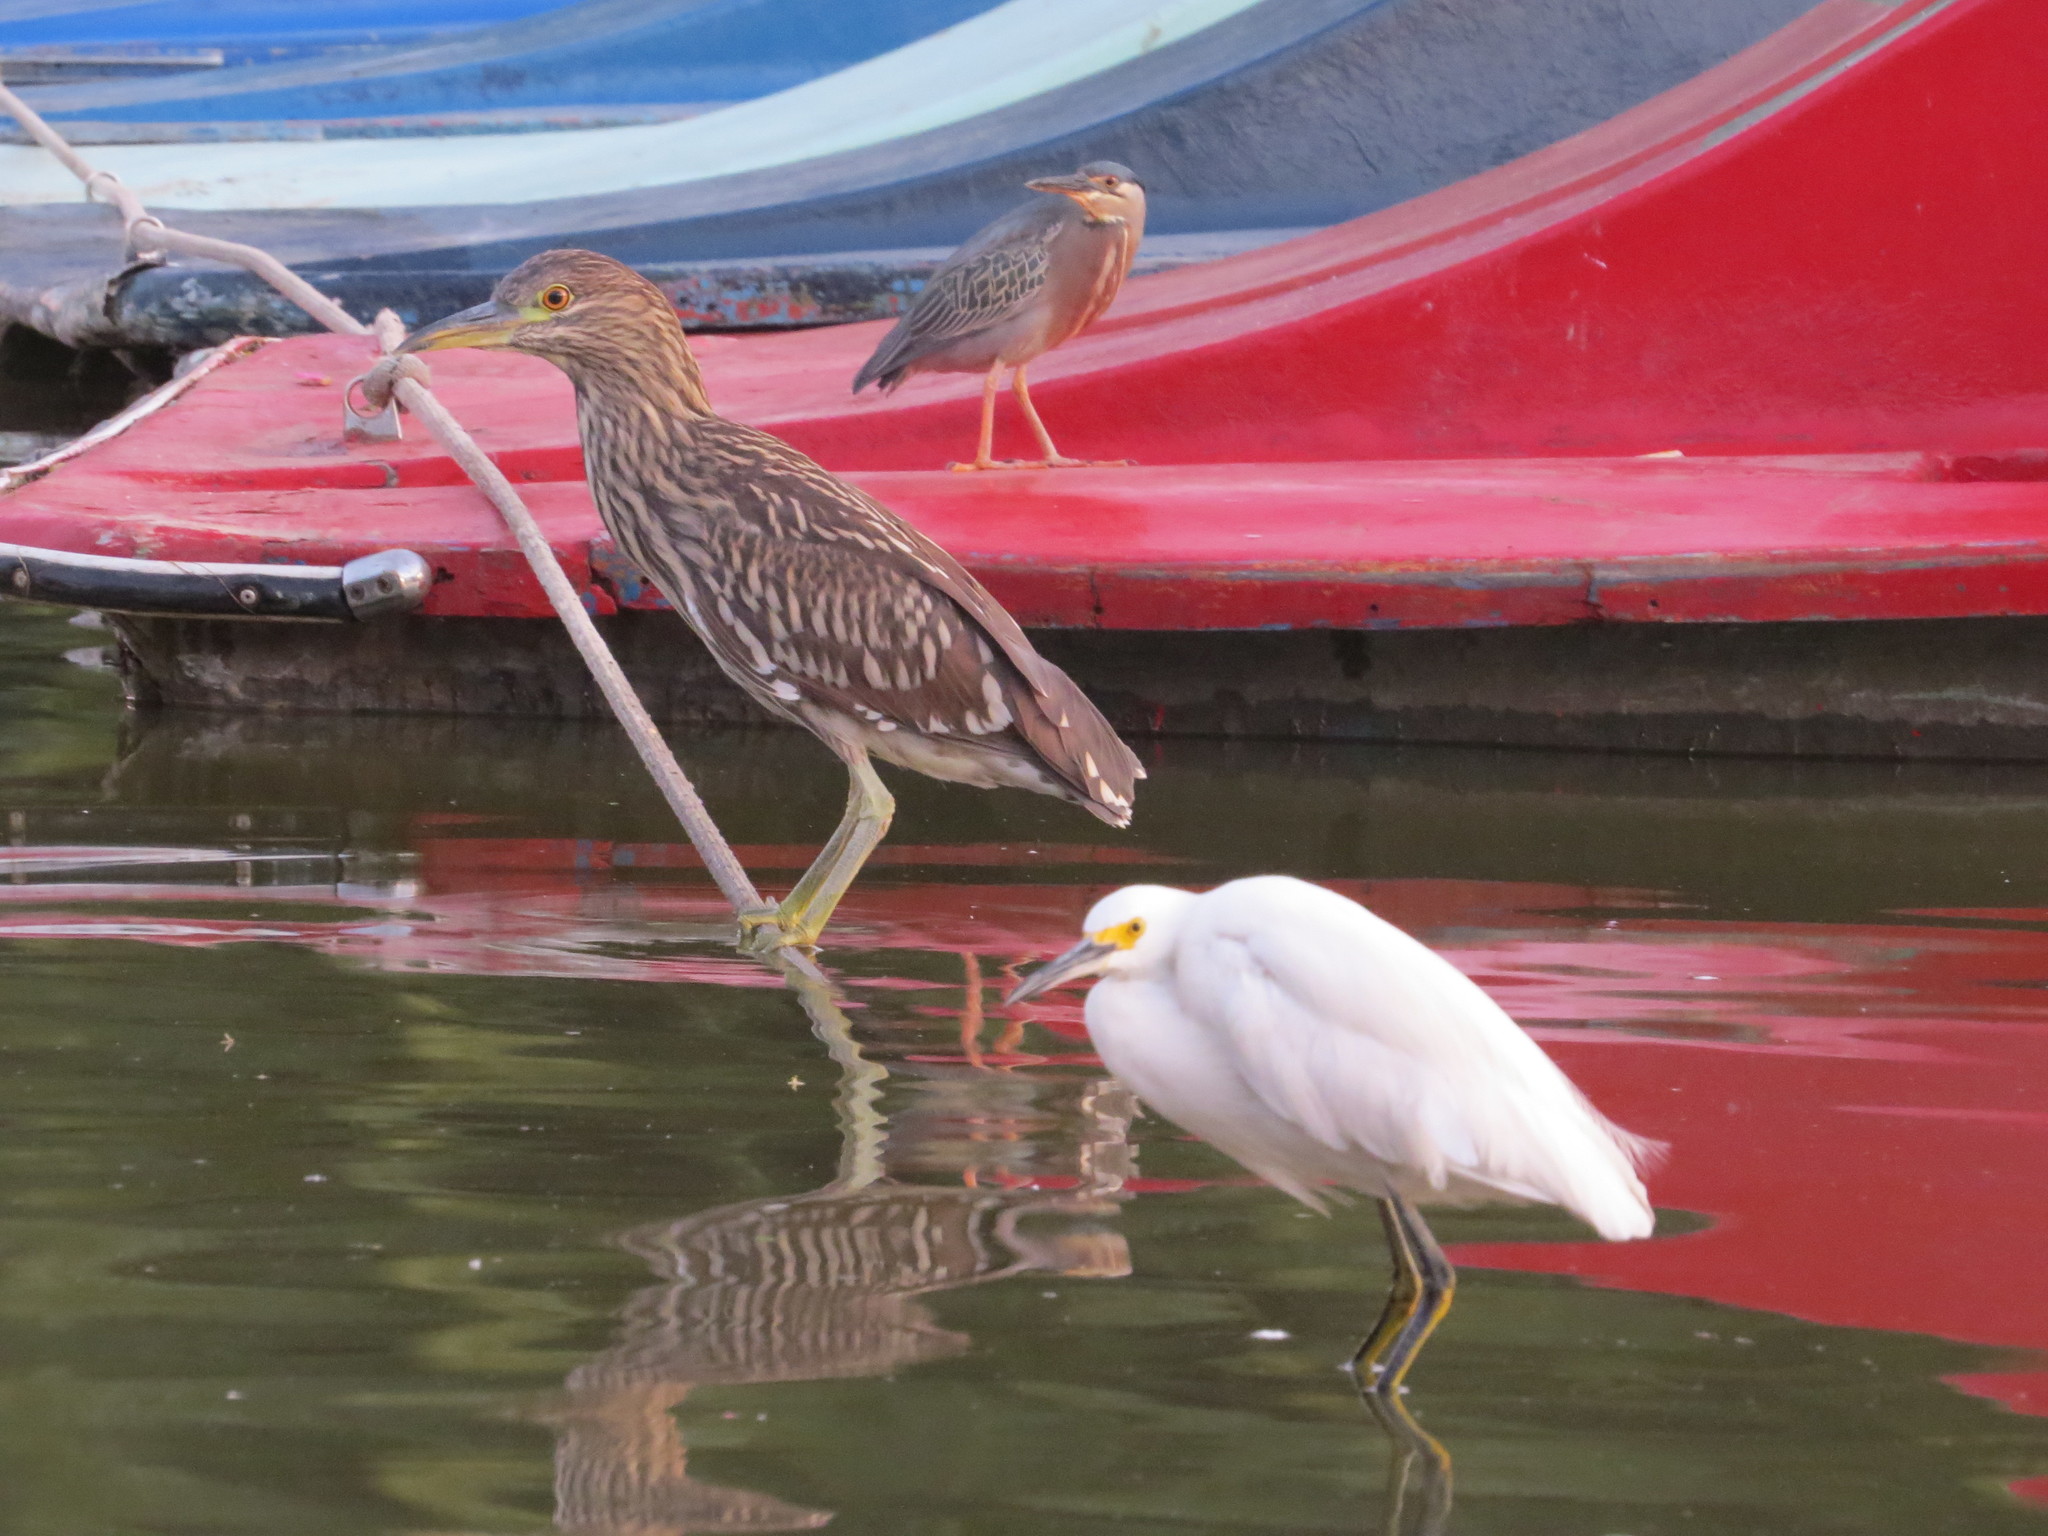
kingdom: Animalia
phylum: Chordata
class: Aves
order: Pelecaniformes
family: Ardeidae
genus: Egretta
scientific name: Egretta thula
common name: Snowy egret
